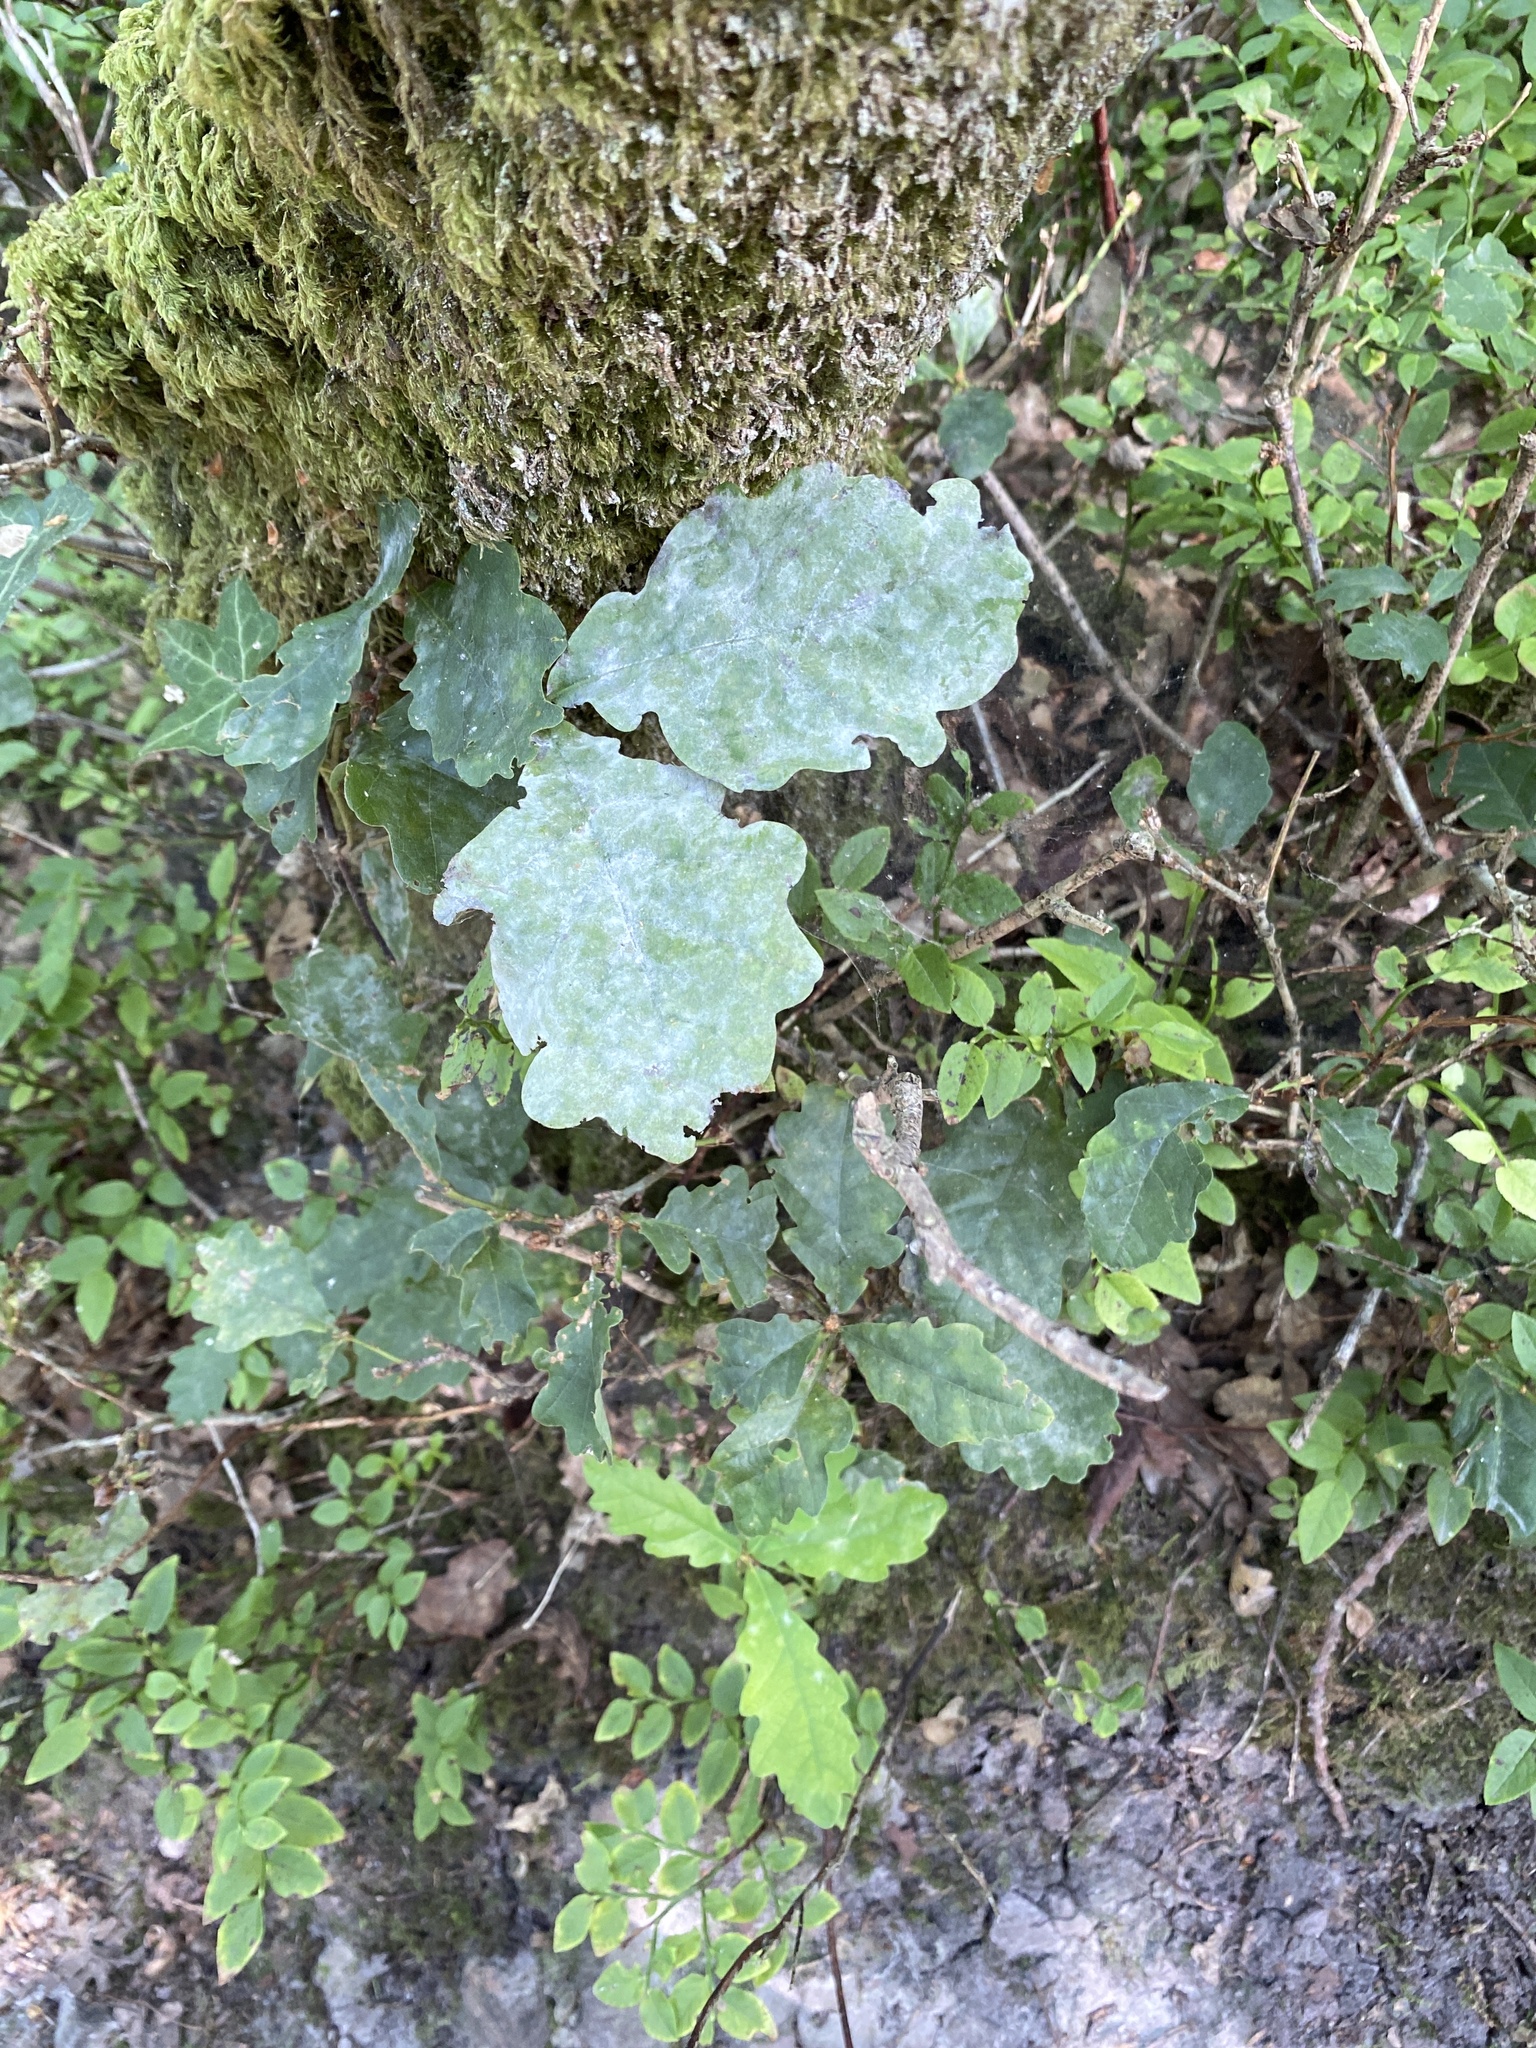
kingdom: Fungi
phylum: Ascomycota
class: Leotiomycetes
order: Helotiales
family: Erysiphaceae
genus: Erysiphe
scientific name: Erysiphe alphitoides
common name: Oak mildew
